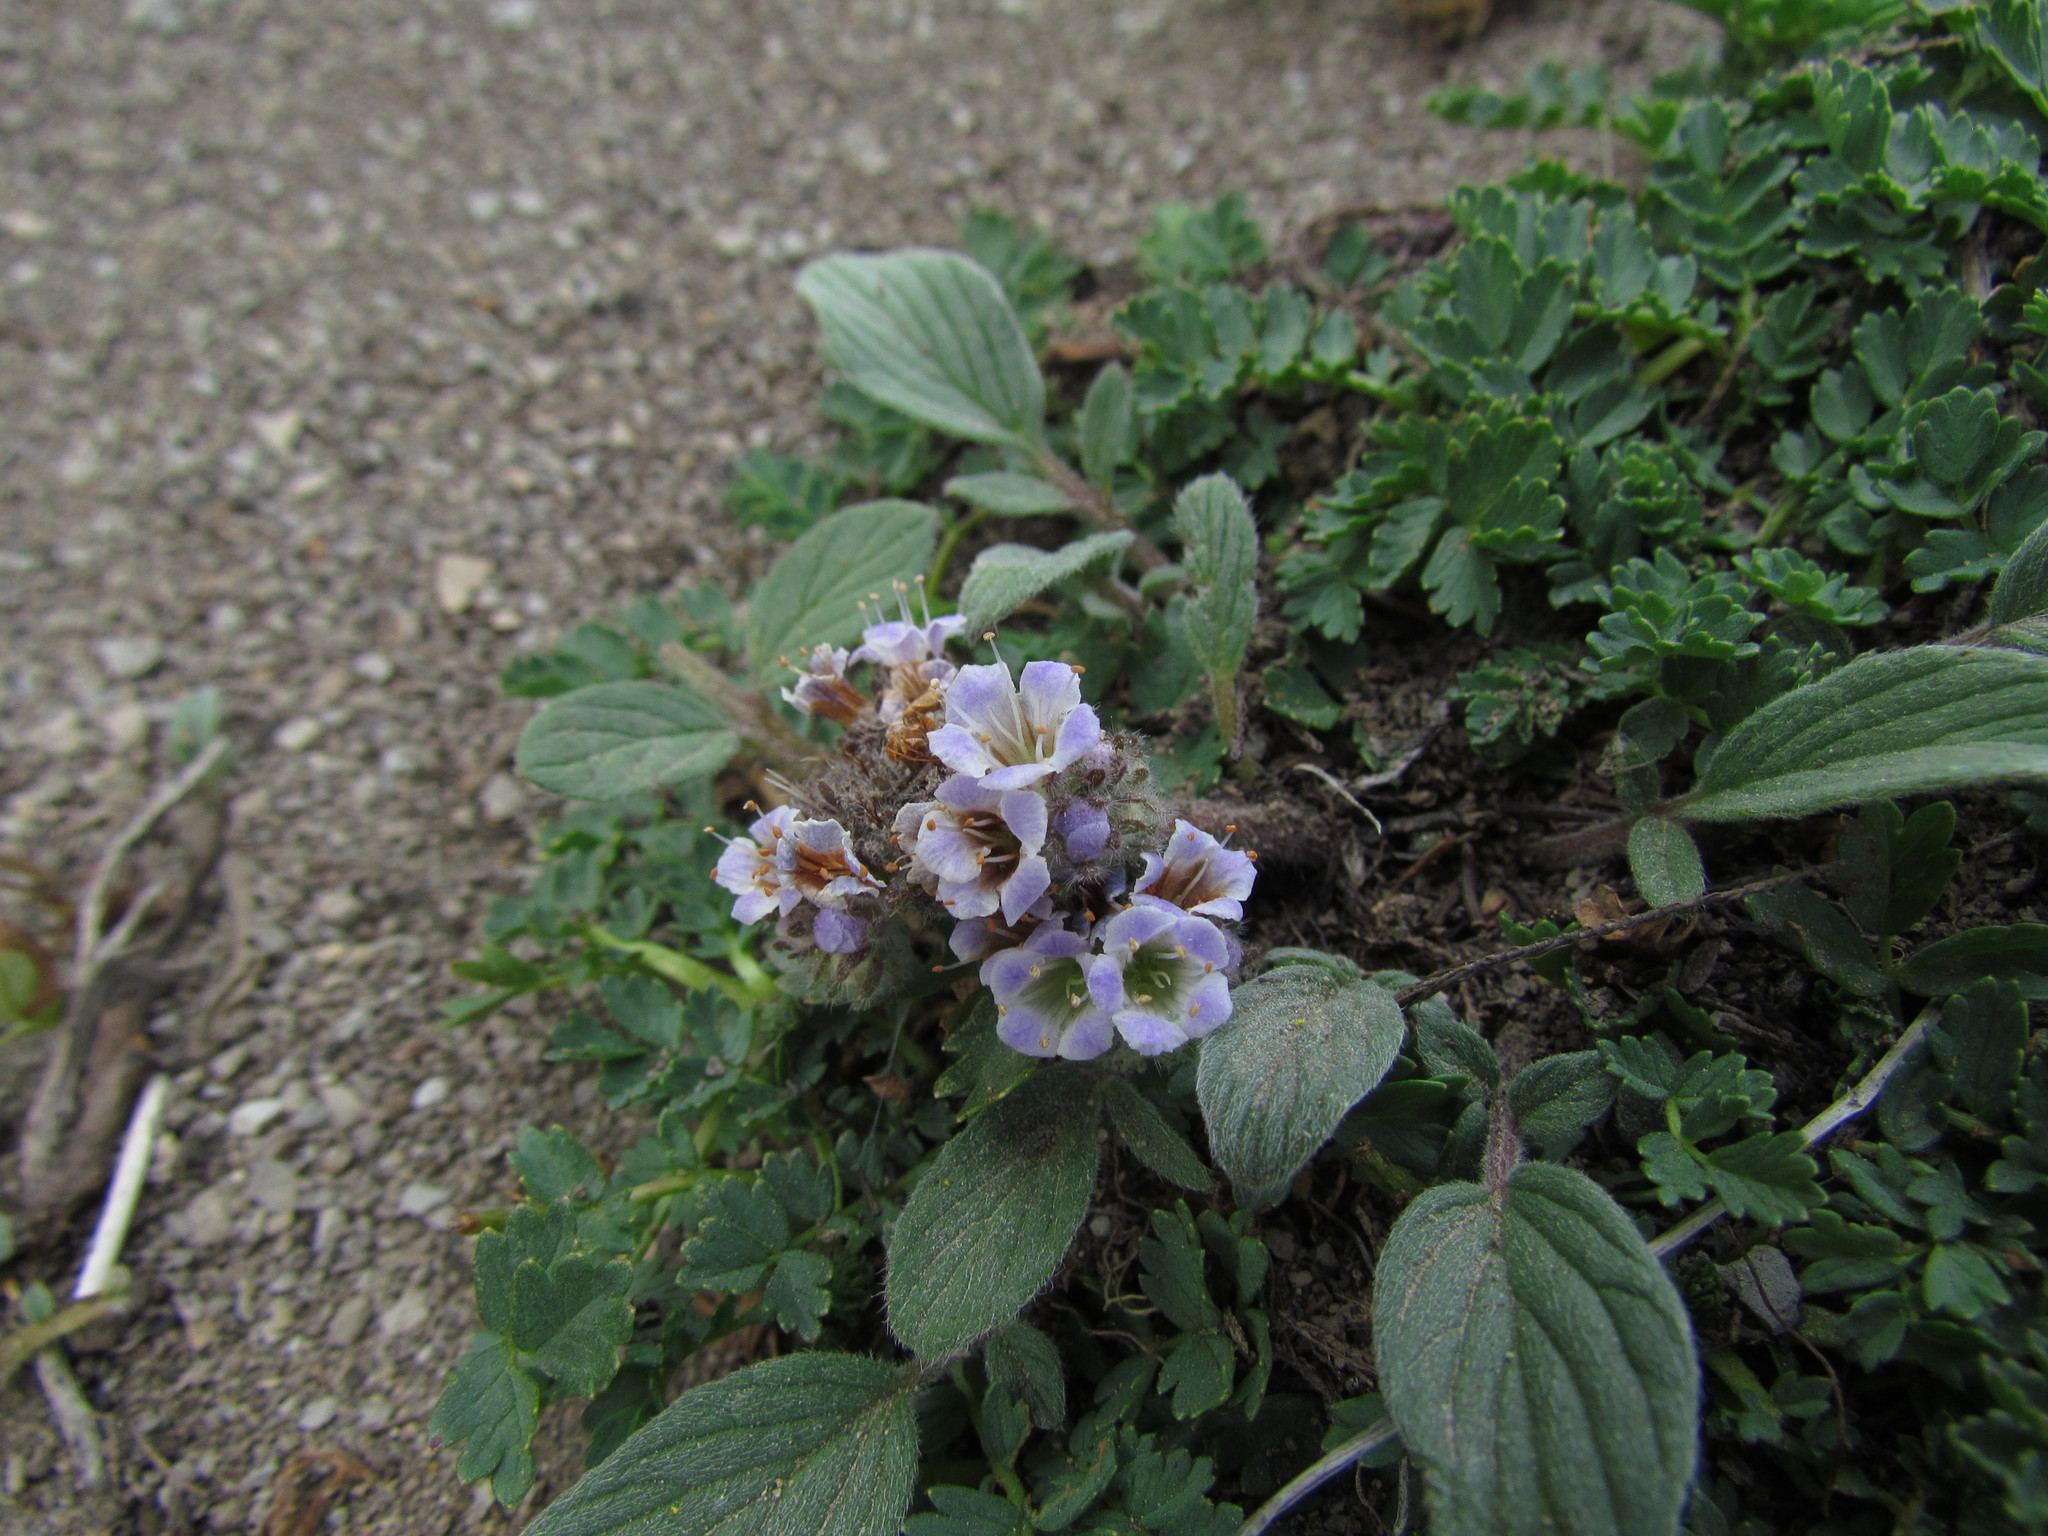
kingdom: Plantae
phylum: Tracheophyta
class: Magnoliopsida
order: Boraginales
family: Hydrophyllaceae
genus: Phacelia
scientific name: Phacelia secunda
